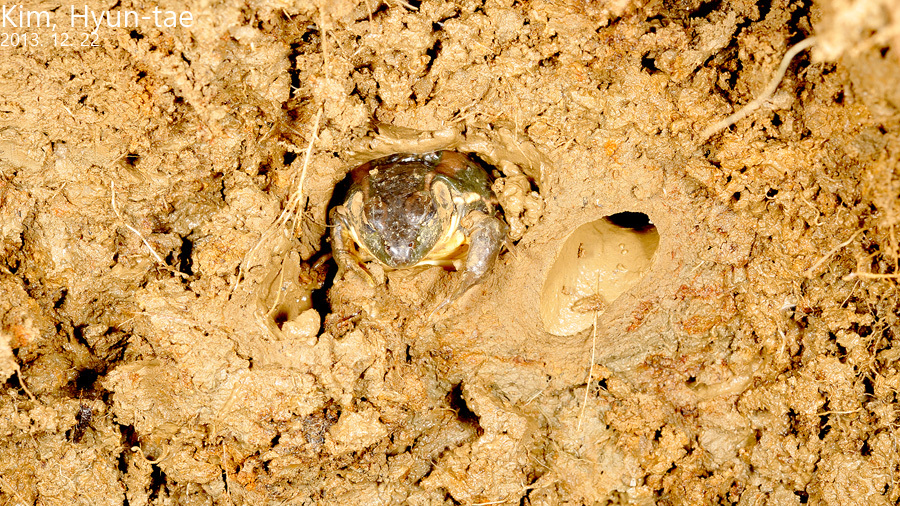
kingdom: Animalia
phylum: Chordata
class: Amphibia
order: Anura
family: Ranidae
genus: Pelophylax
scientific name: Pelophylax chosenicus
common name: Gold-spotted pond frog
